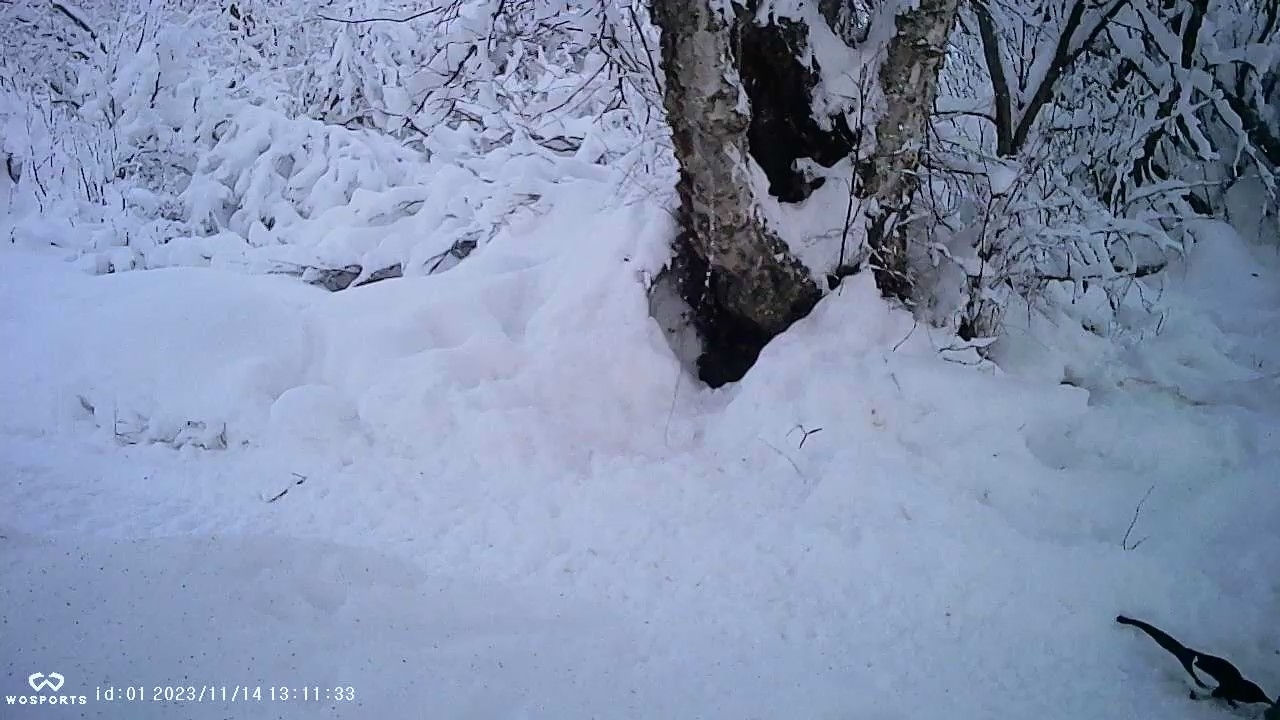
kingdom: Animalia
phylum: Chordata
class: Aves
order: Passeriformes
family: Corvidae
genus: Pica
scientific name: Pica hudsonia
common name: Black-billed magpie
